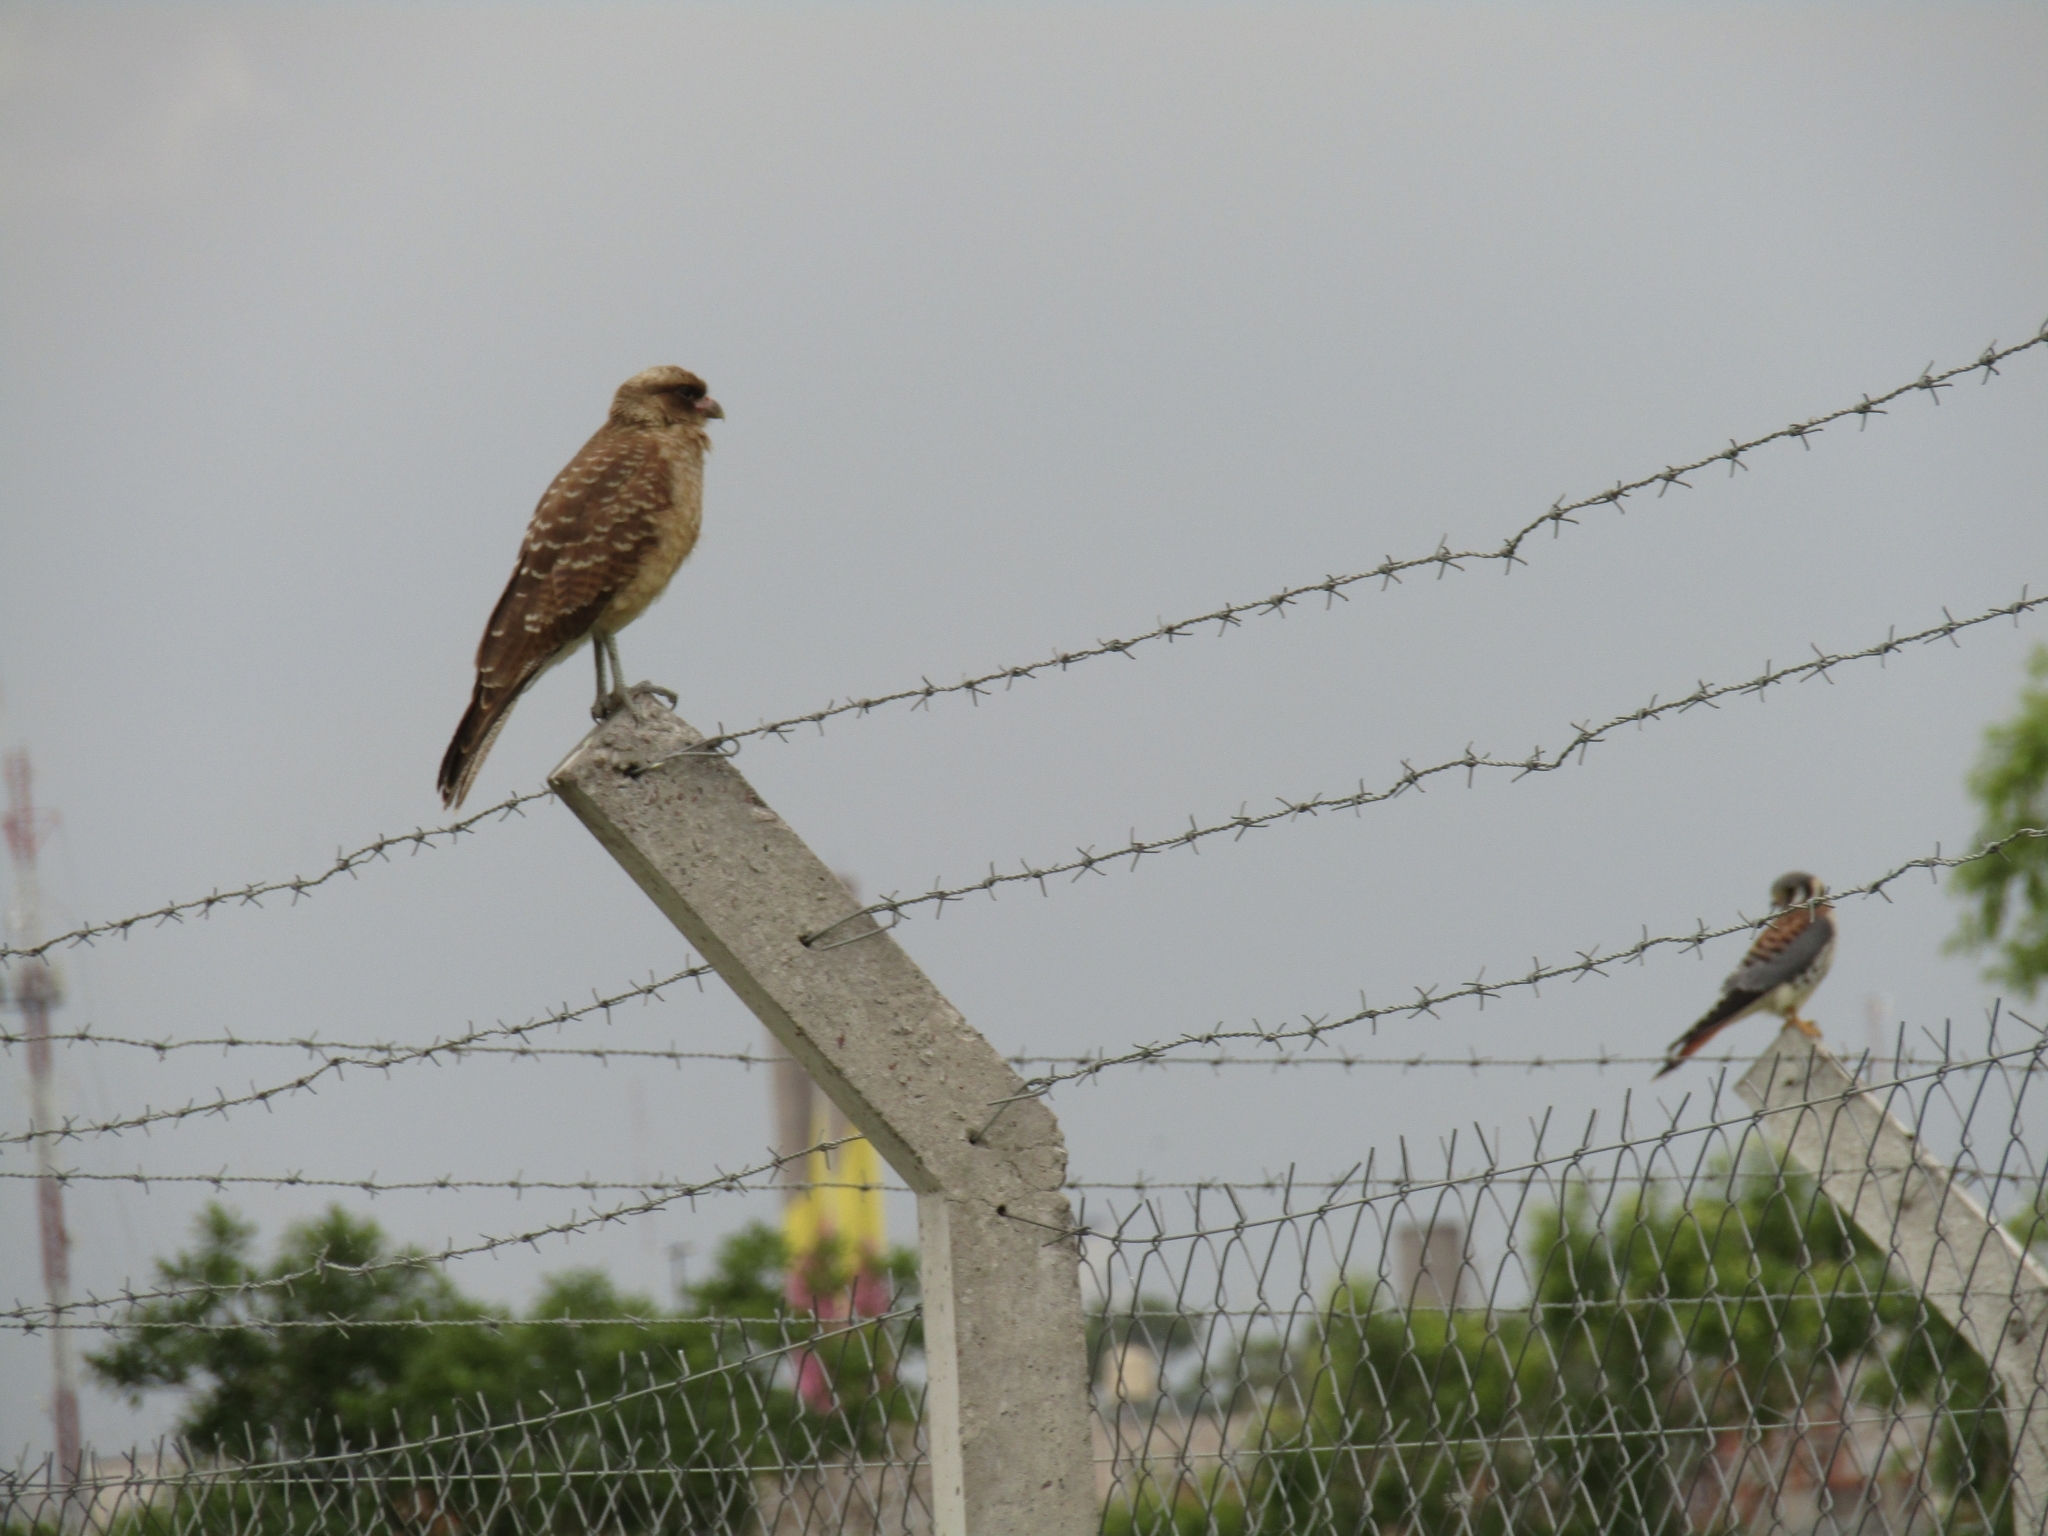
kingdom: Animalia
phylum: Chordata
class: Aves
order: Falconiformes
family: Falconidae
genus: Falco
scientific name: Falco sparverius
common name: American kestrel
